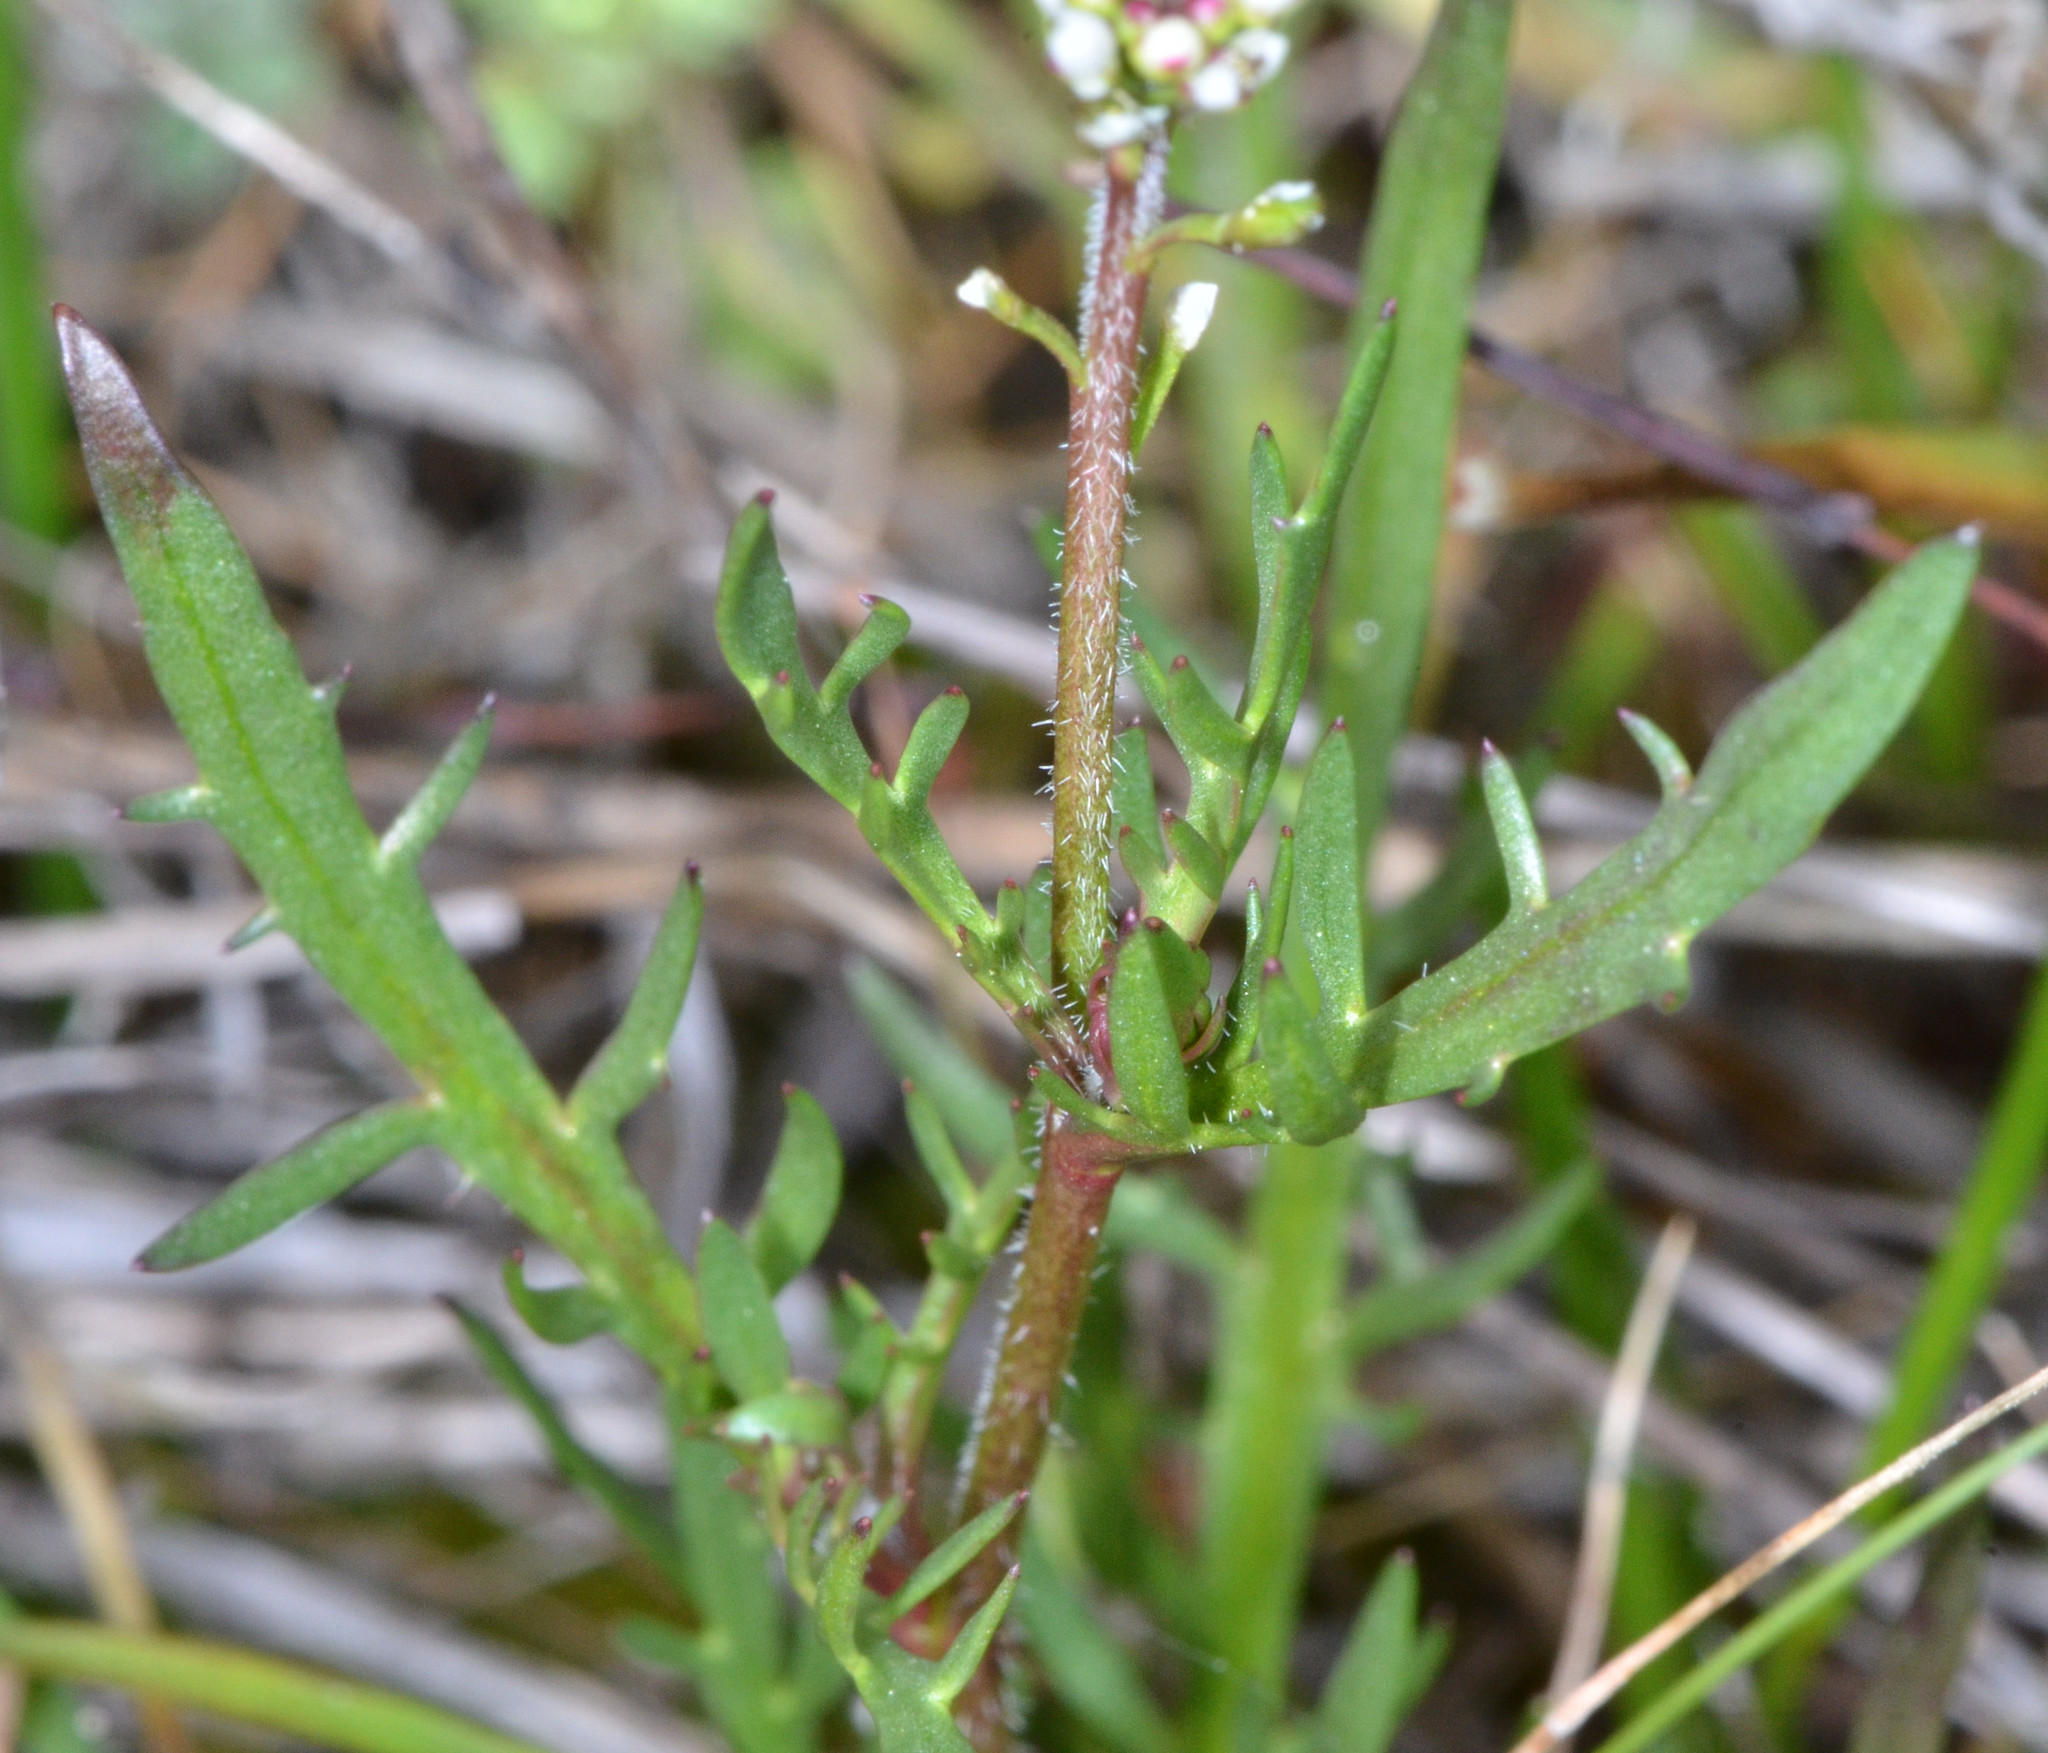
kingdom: Plantae
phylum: Tracheophyta
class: Magnoliopsida
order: Brassicales
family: Brassicaceae
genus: Lepidium
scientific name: Lepidium nitidum
